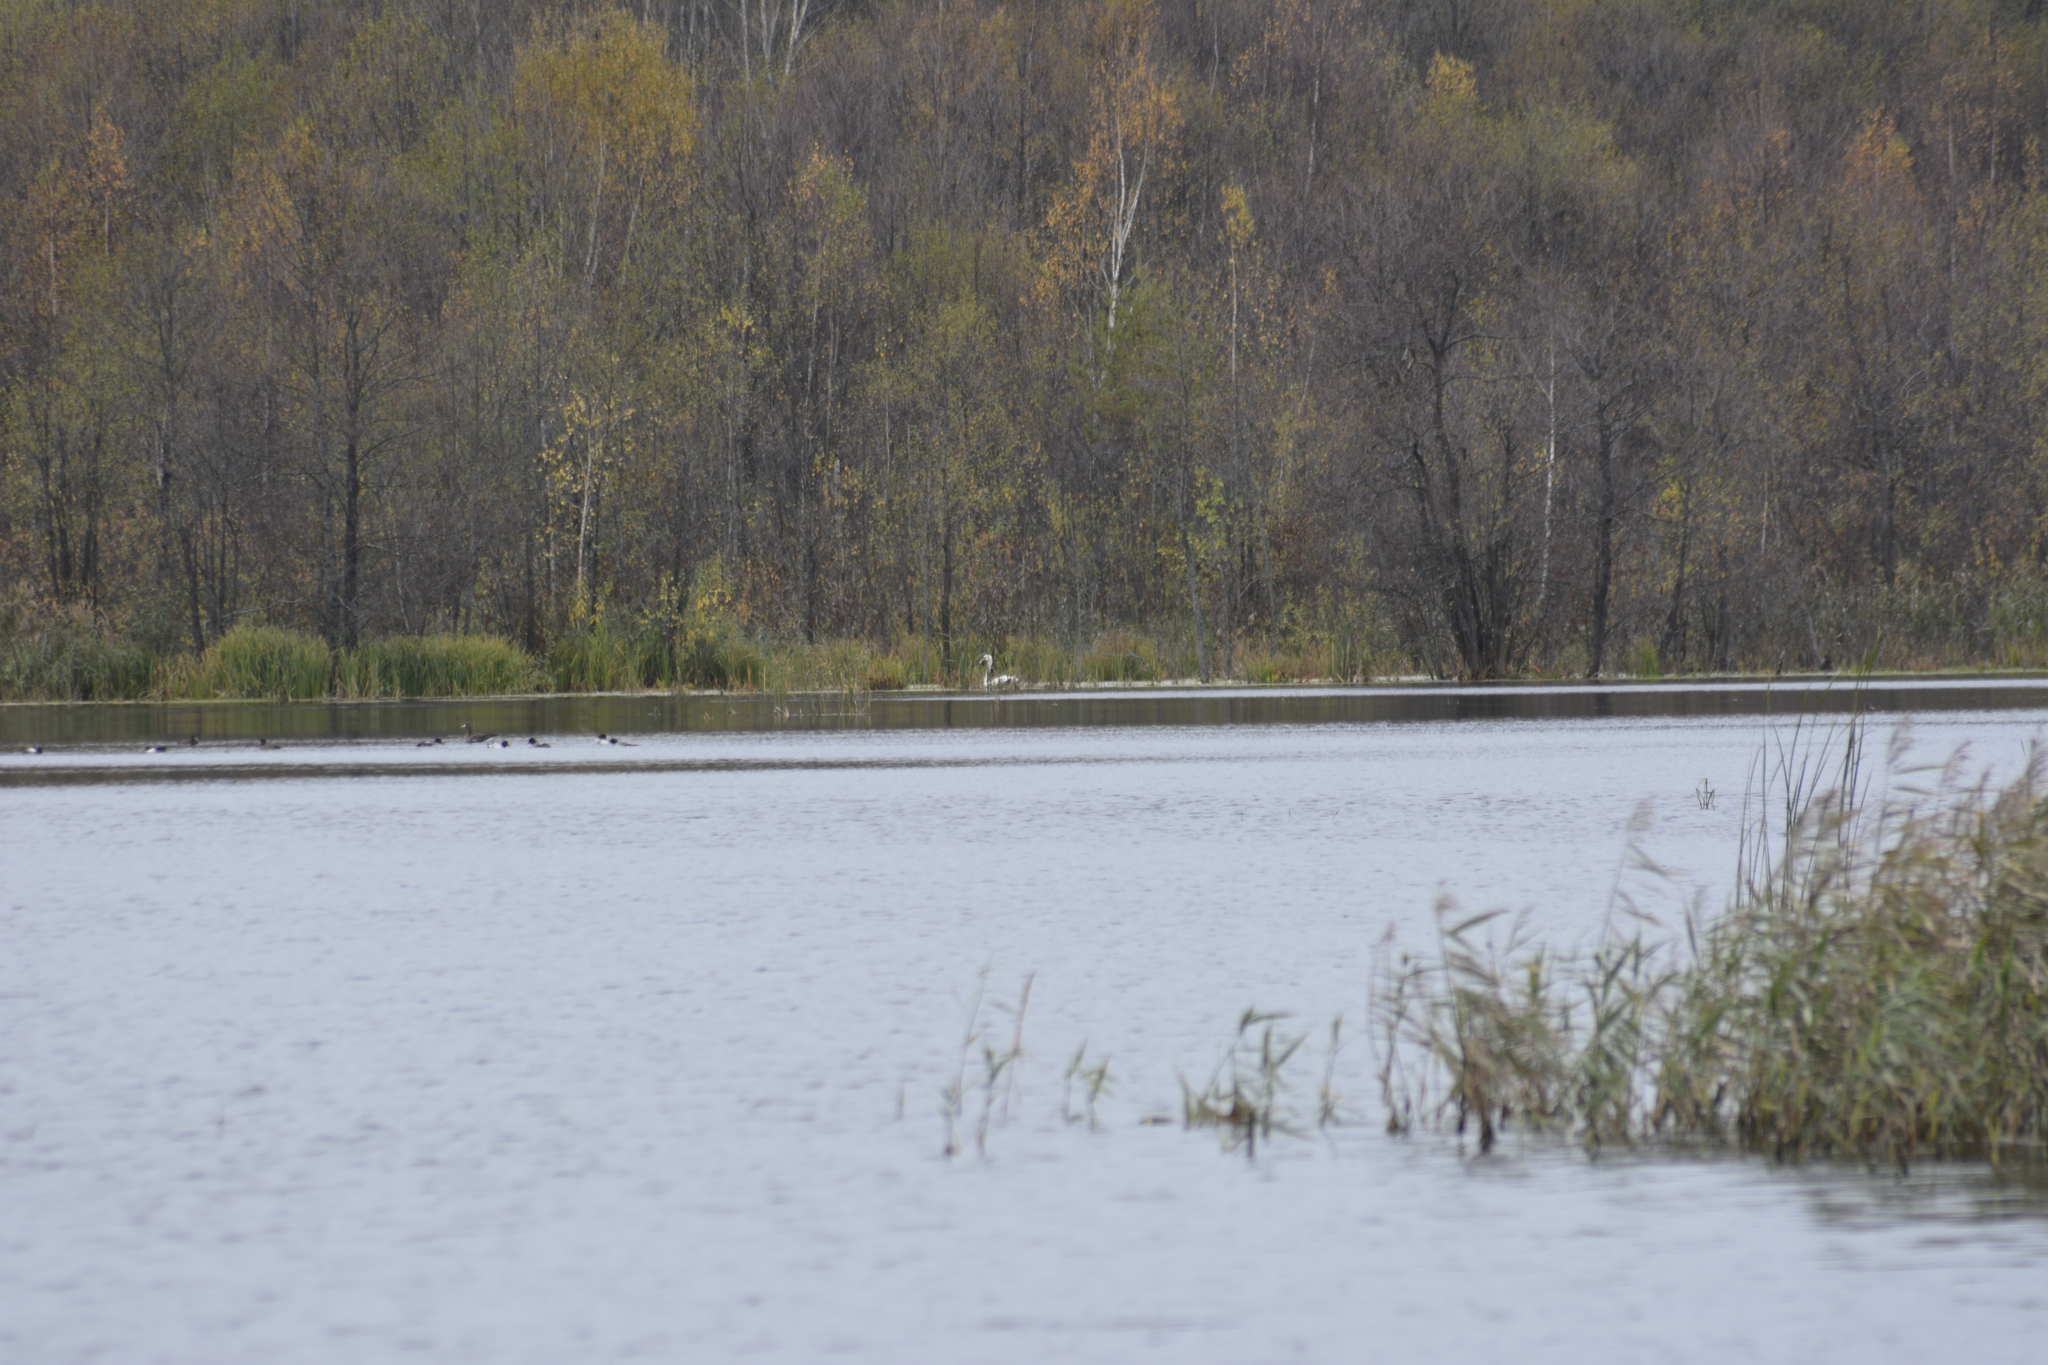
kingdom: Animalia
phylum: Chordata
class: Aves
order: Anseriformes
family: Anatidae
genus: Cygnus
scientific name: Cygnus olor
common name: Mute swan
